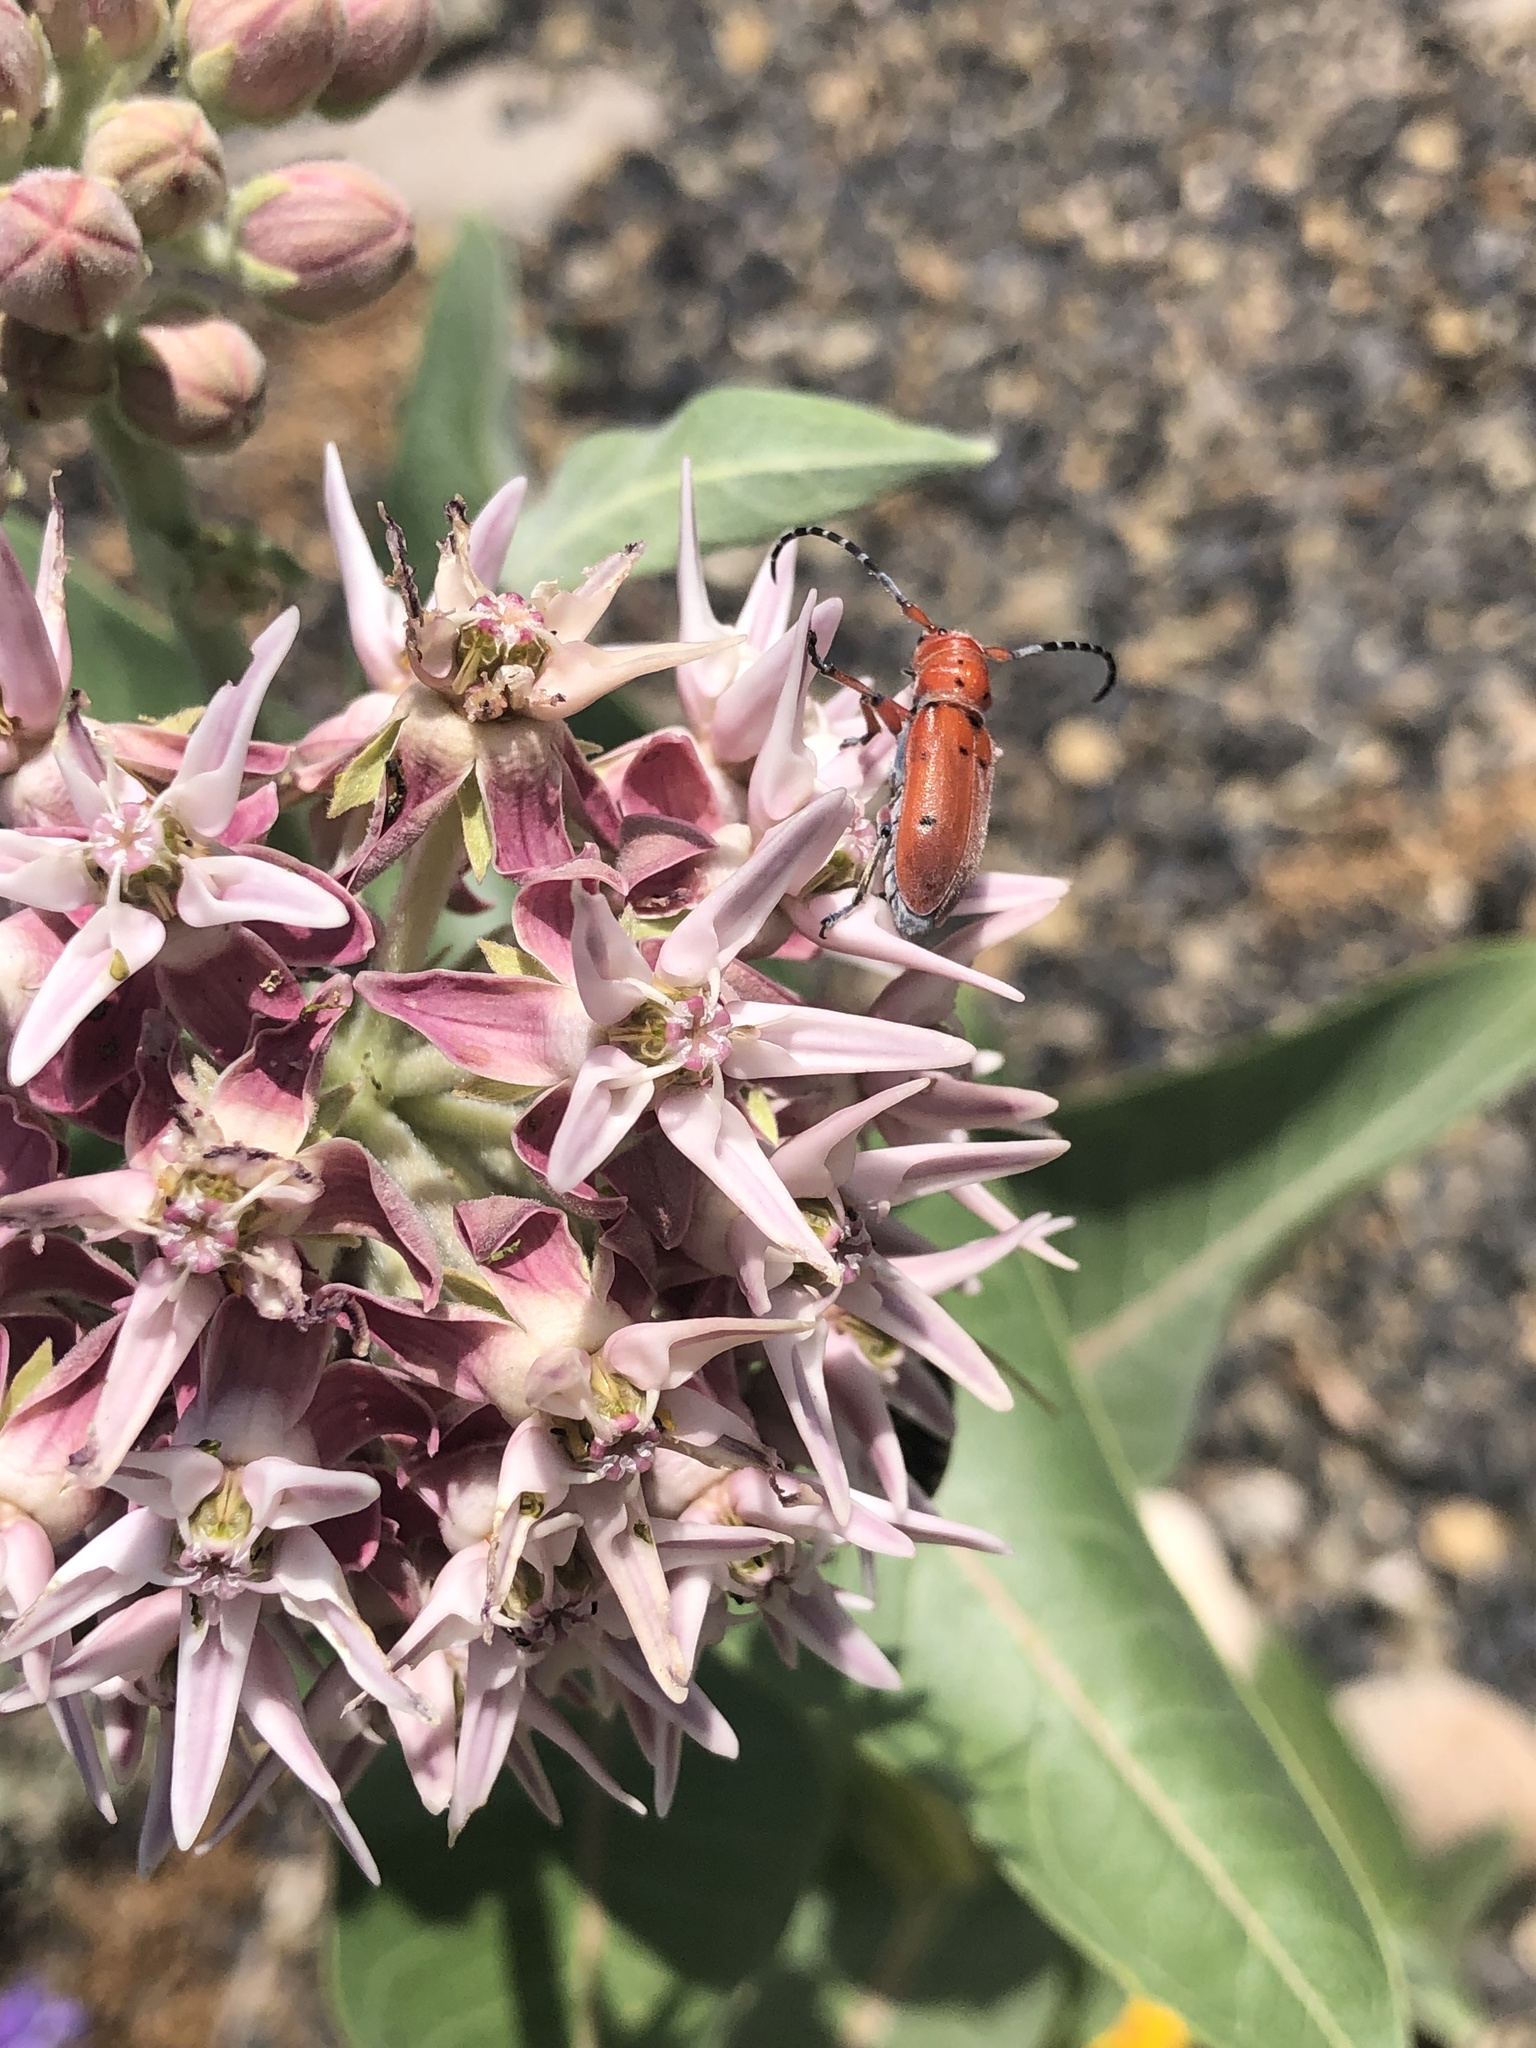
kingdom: Animalia
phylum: Arthropoda
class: Insecta
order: Coleoptera
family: Cerambycidae
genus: Tetraopes
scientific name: Tetraopes femoratus
